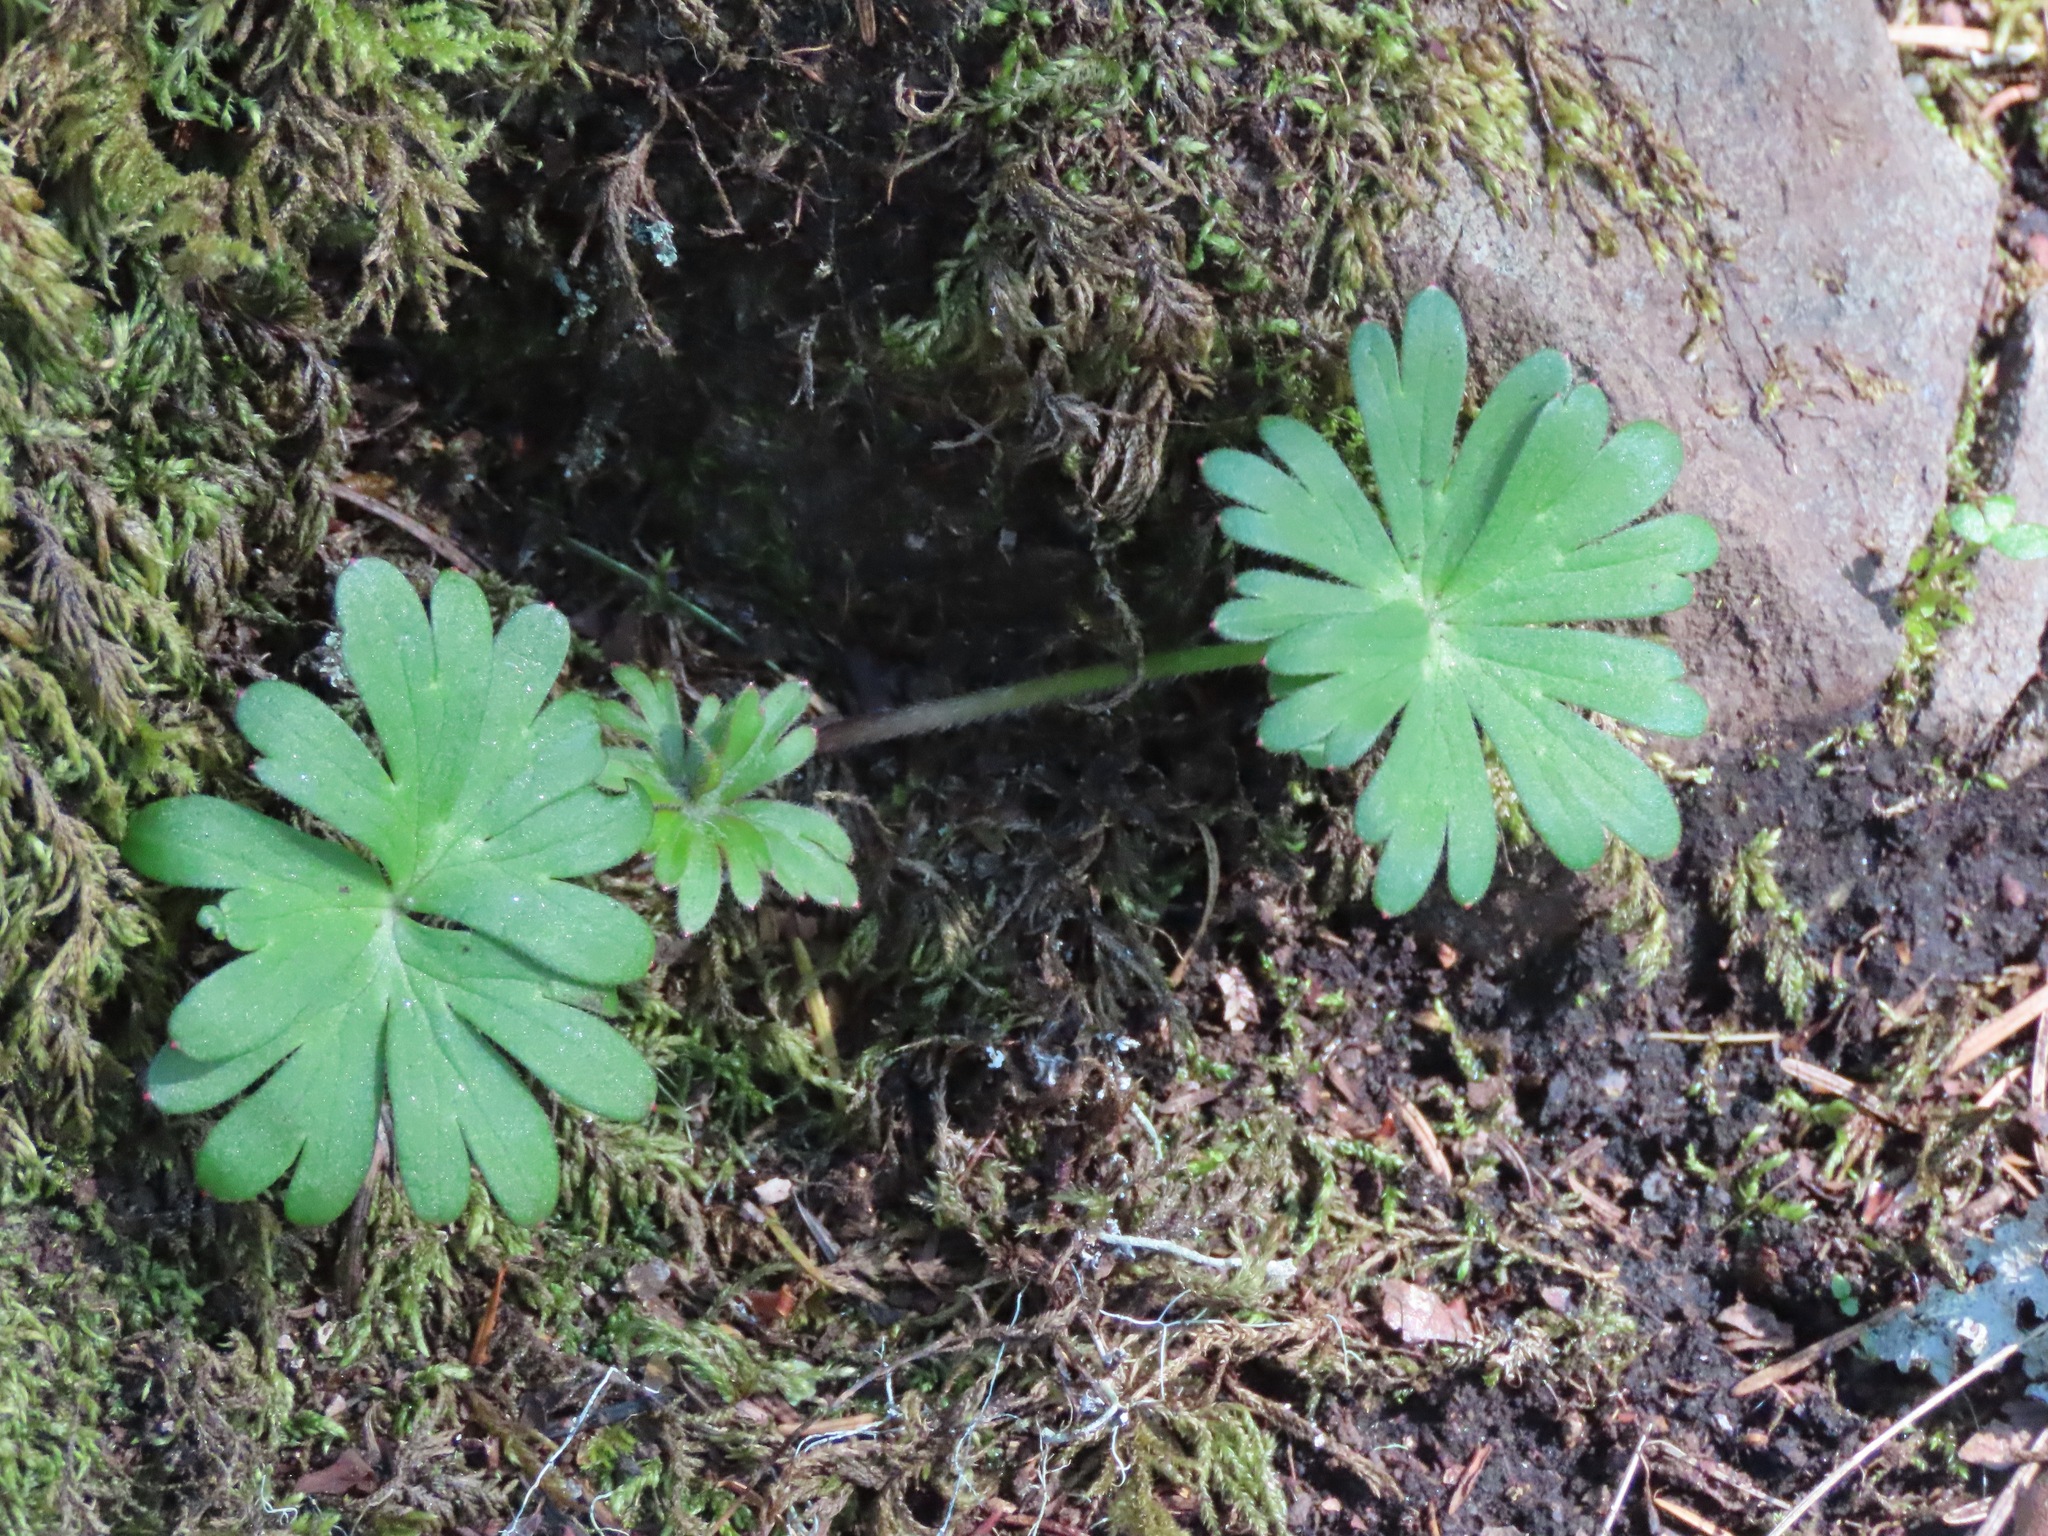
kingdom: Plantae
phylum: Tracheophyta
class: Magnoliopsida
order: Ranunculales
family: Ranunculaceae
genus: Delphinium
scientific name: Delphinium menziesii
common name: Menzies's larkspur
